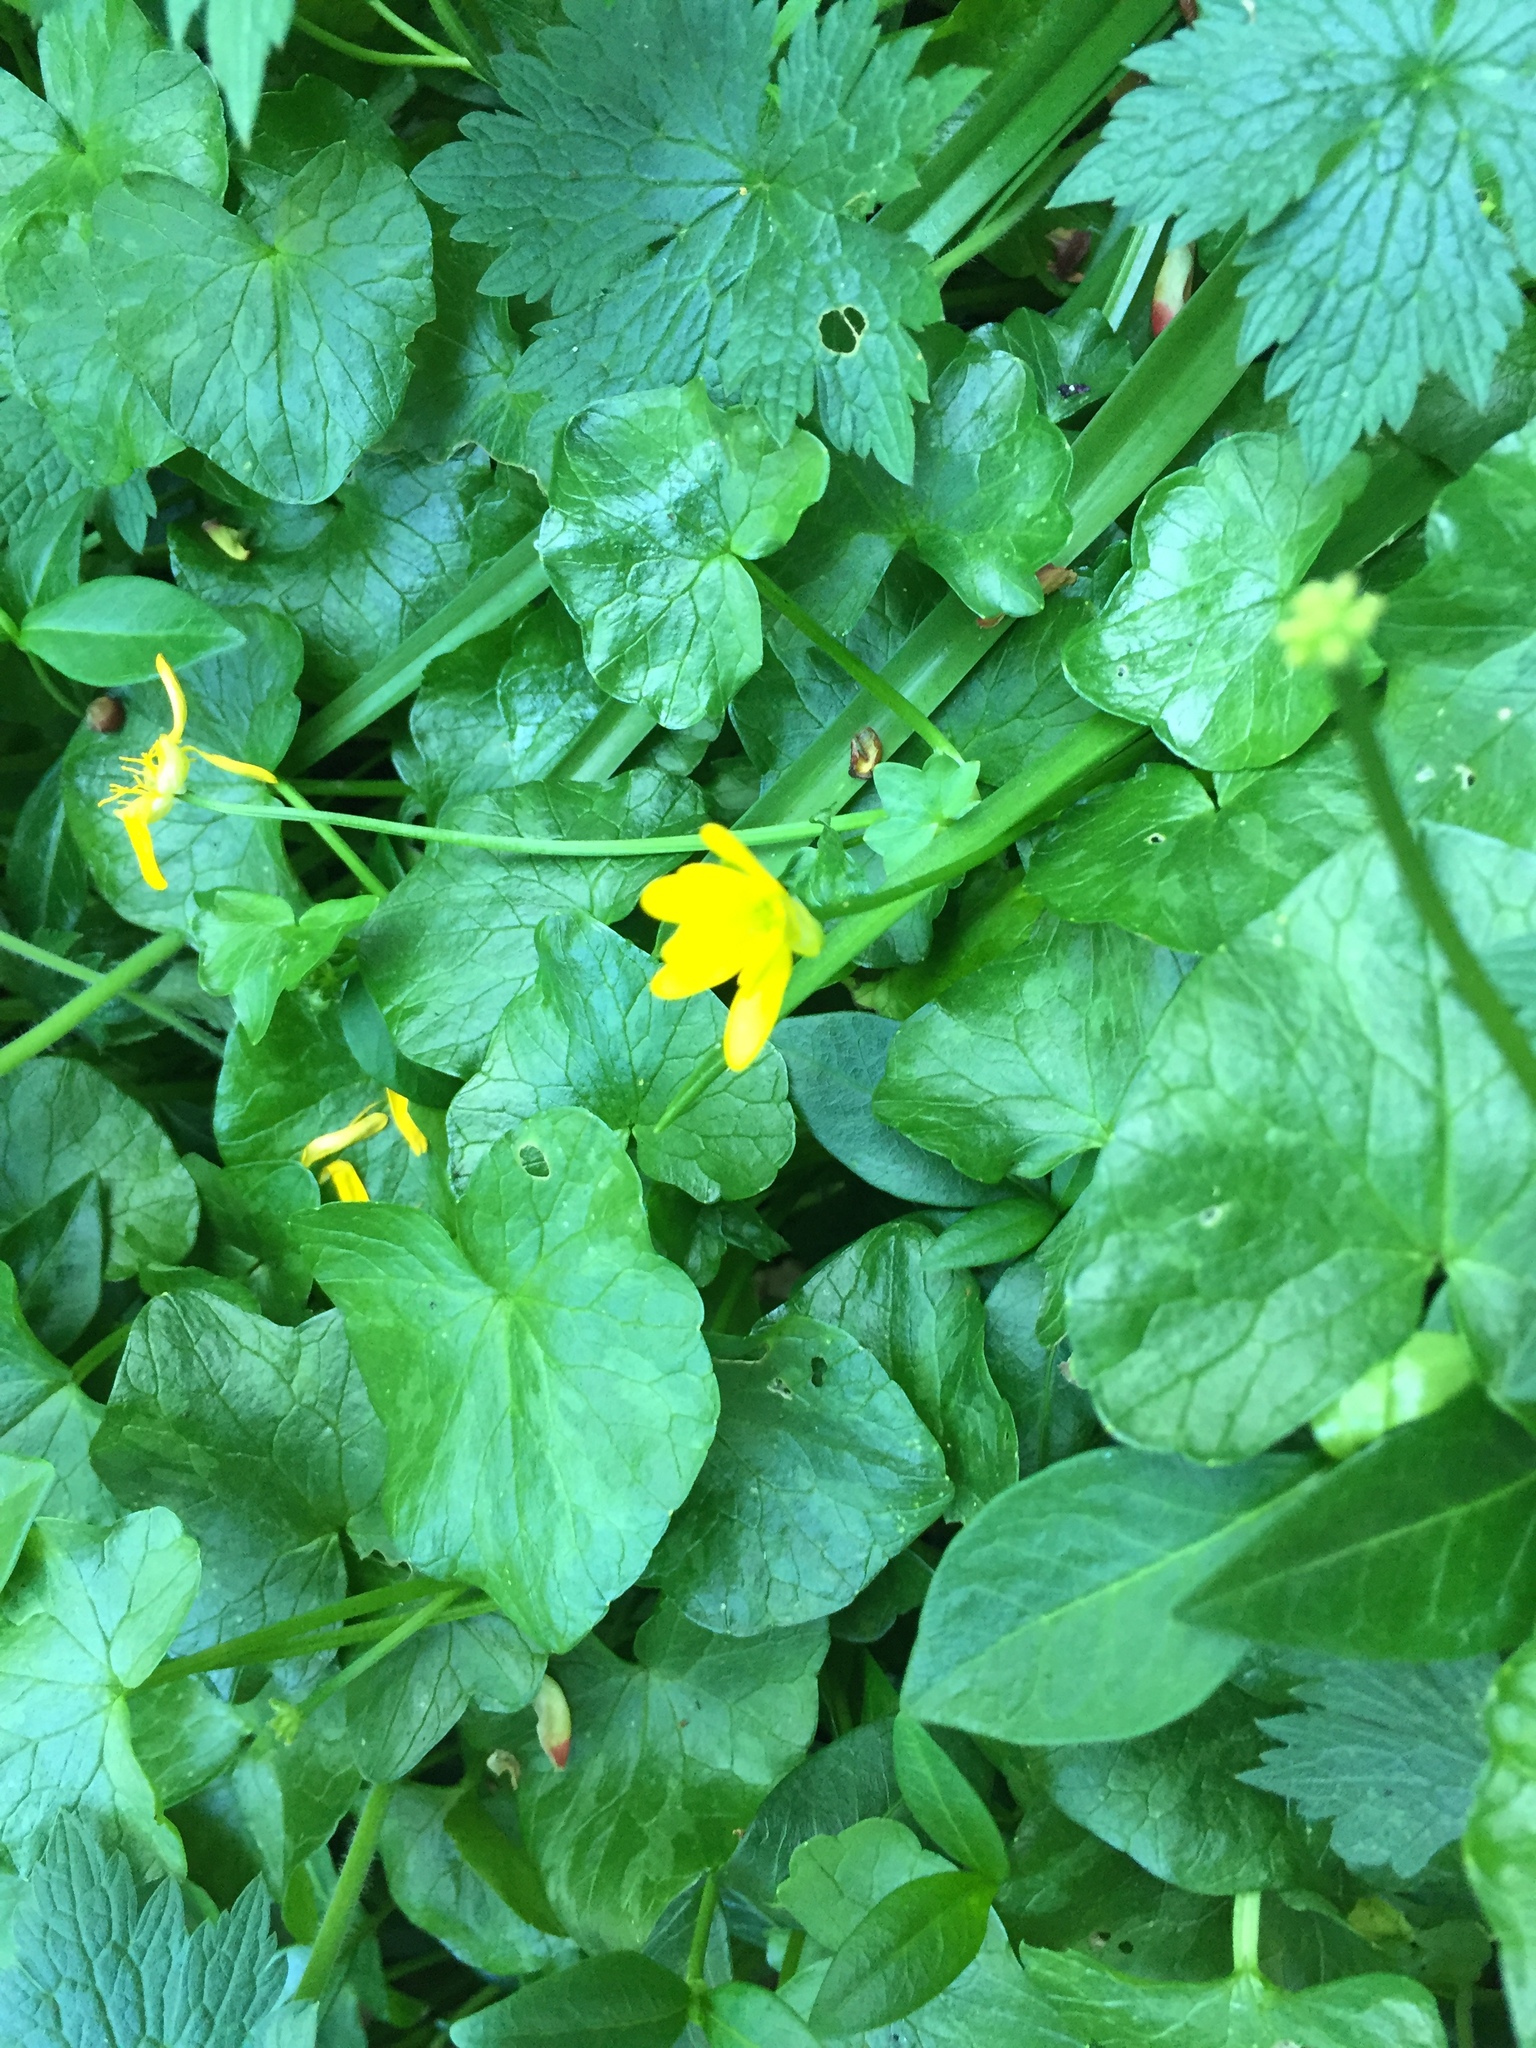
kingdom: Plantae
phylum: Tracheophyta
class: Magnoliopsida
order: Ranunculales
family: Ranunculaceae
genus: Ficaria
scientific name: Ficaria verna
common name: Lesser celandine
